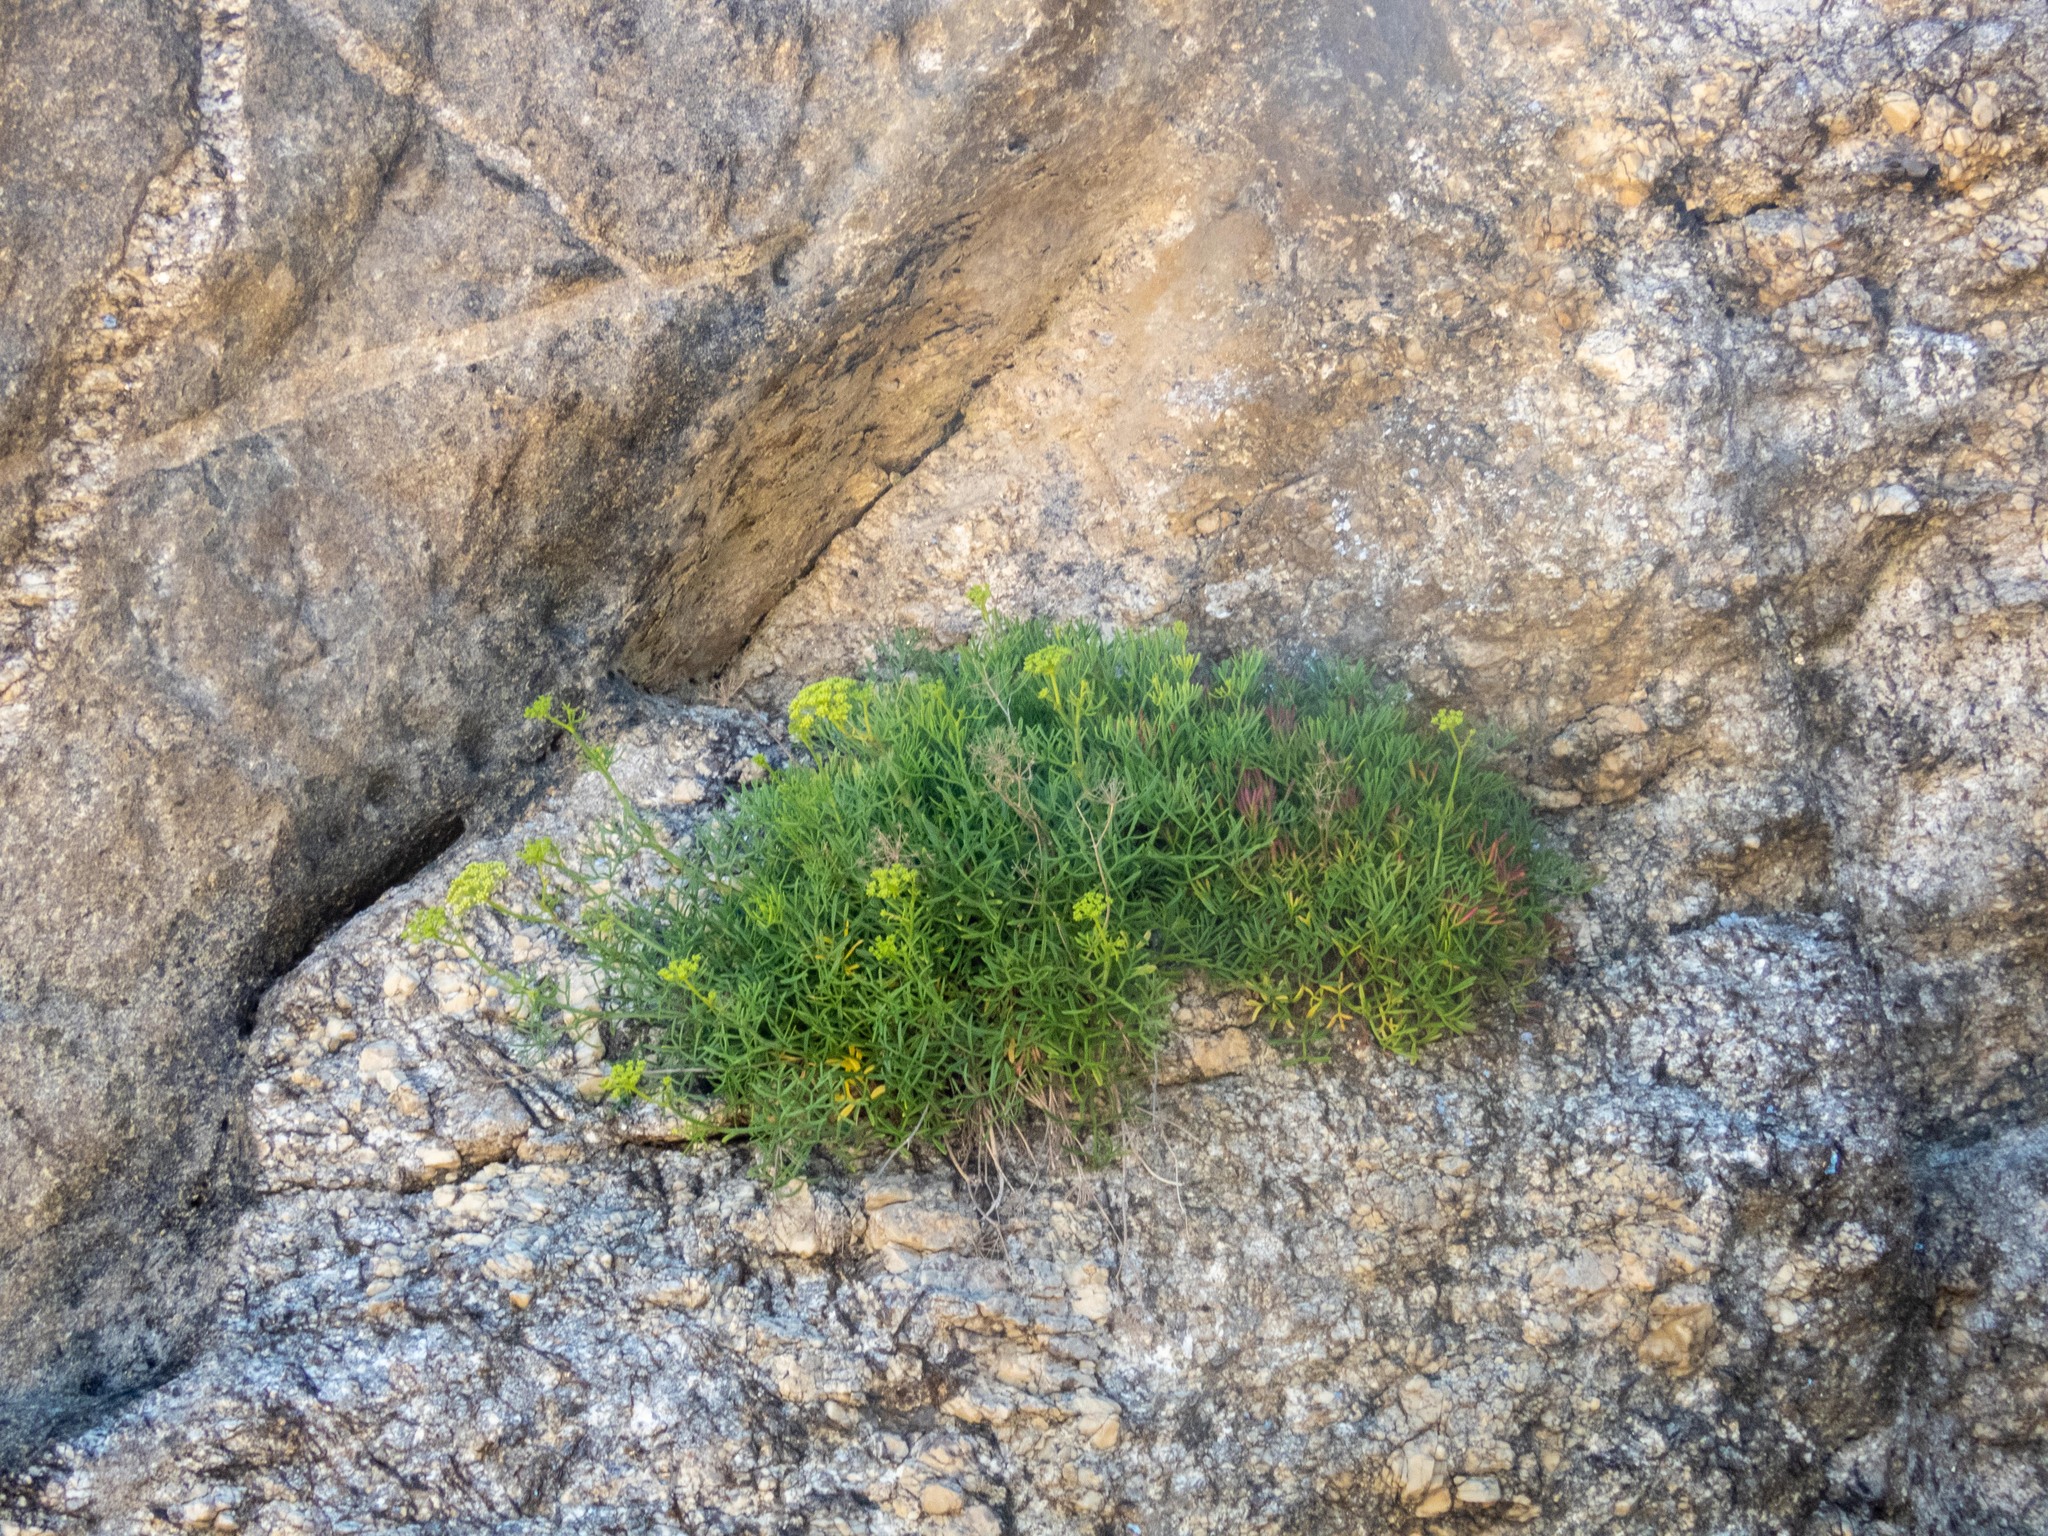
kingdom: Plantae
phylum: Tracheophyta
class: Magnoliopsida
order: Apiales
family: Apiaceae
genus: Crithmum
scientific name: Crithmum maritimum
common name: Rock samphire
